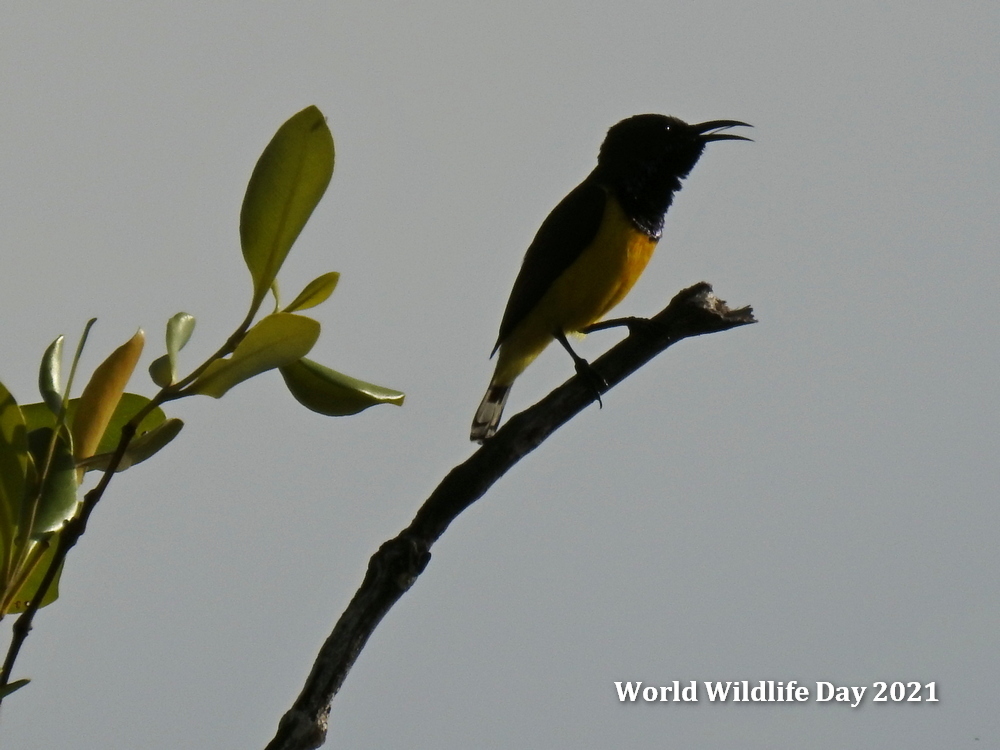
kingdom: Animalia
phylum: Chordata
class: Aves
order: Passeriformes
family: Nectariniidae
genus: Cinnyris
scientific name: Cinnyris
